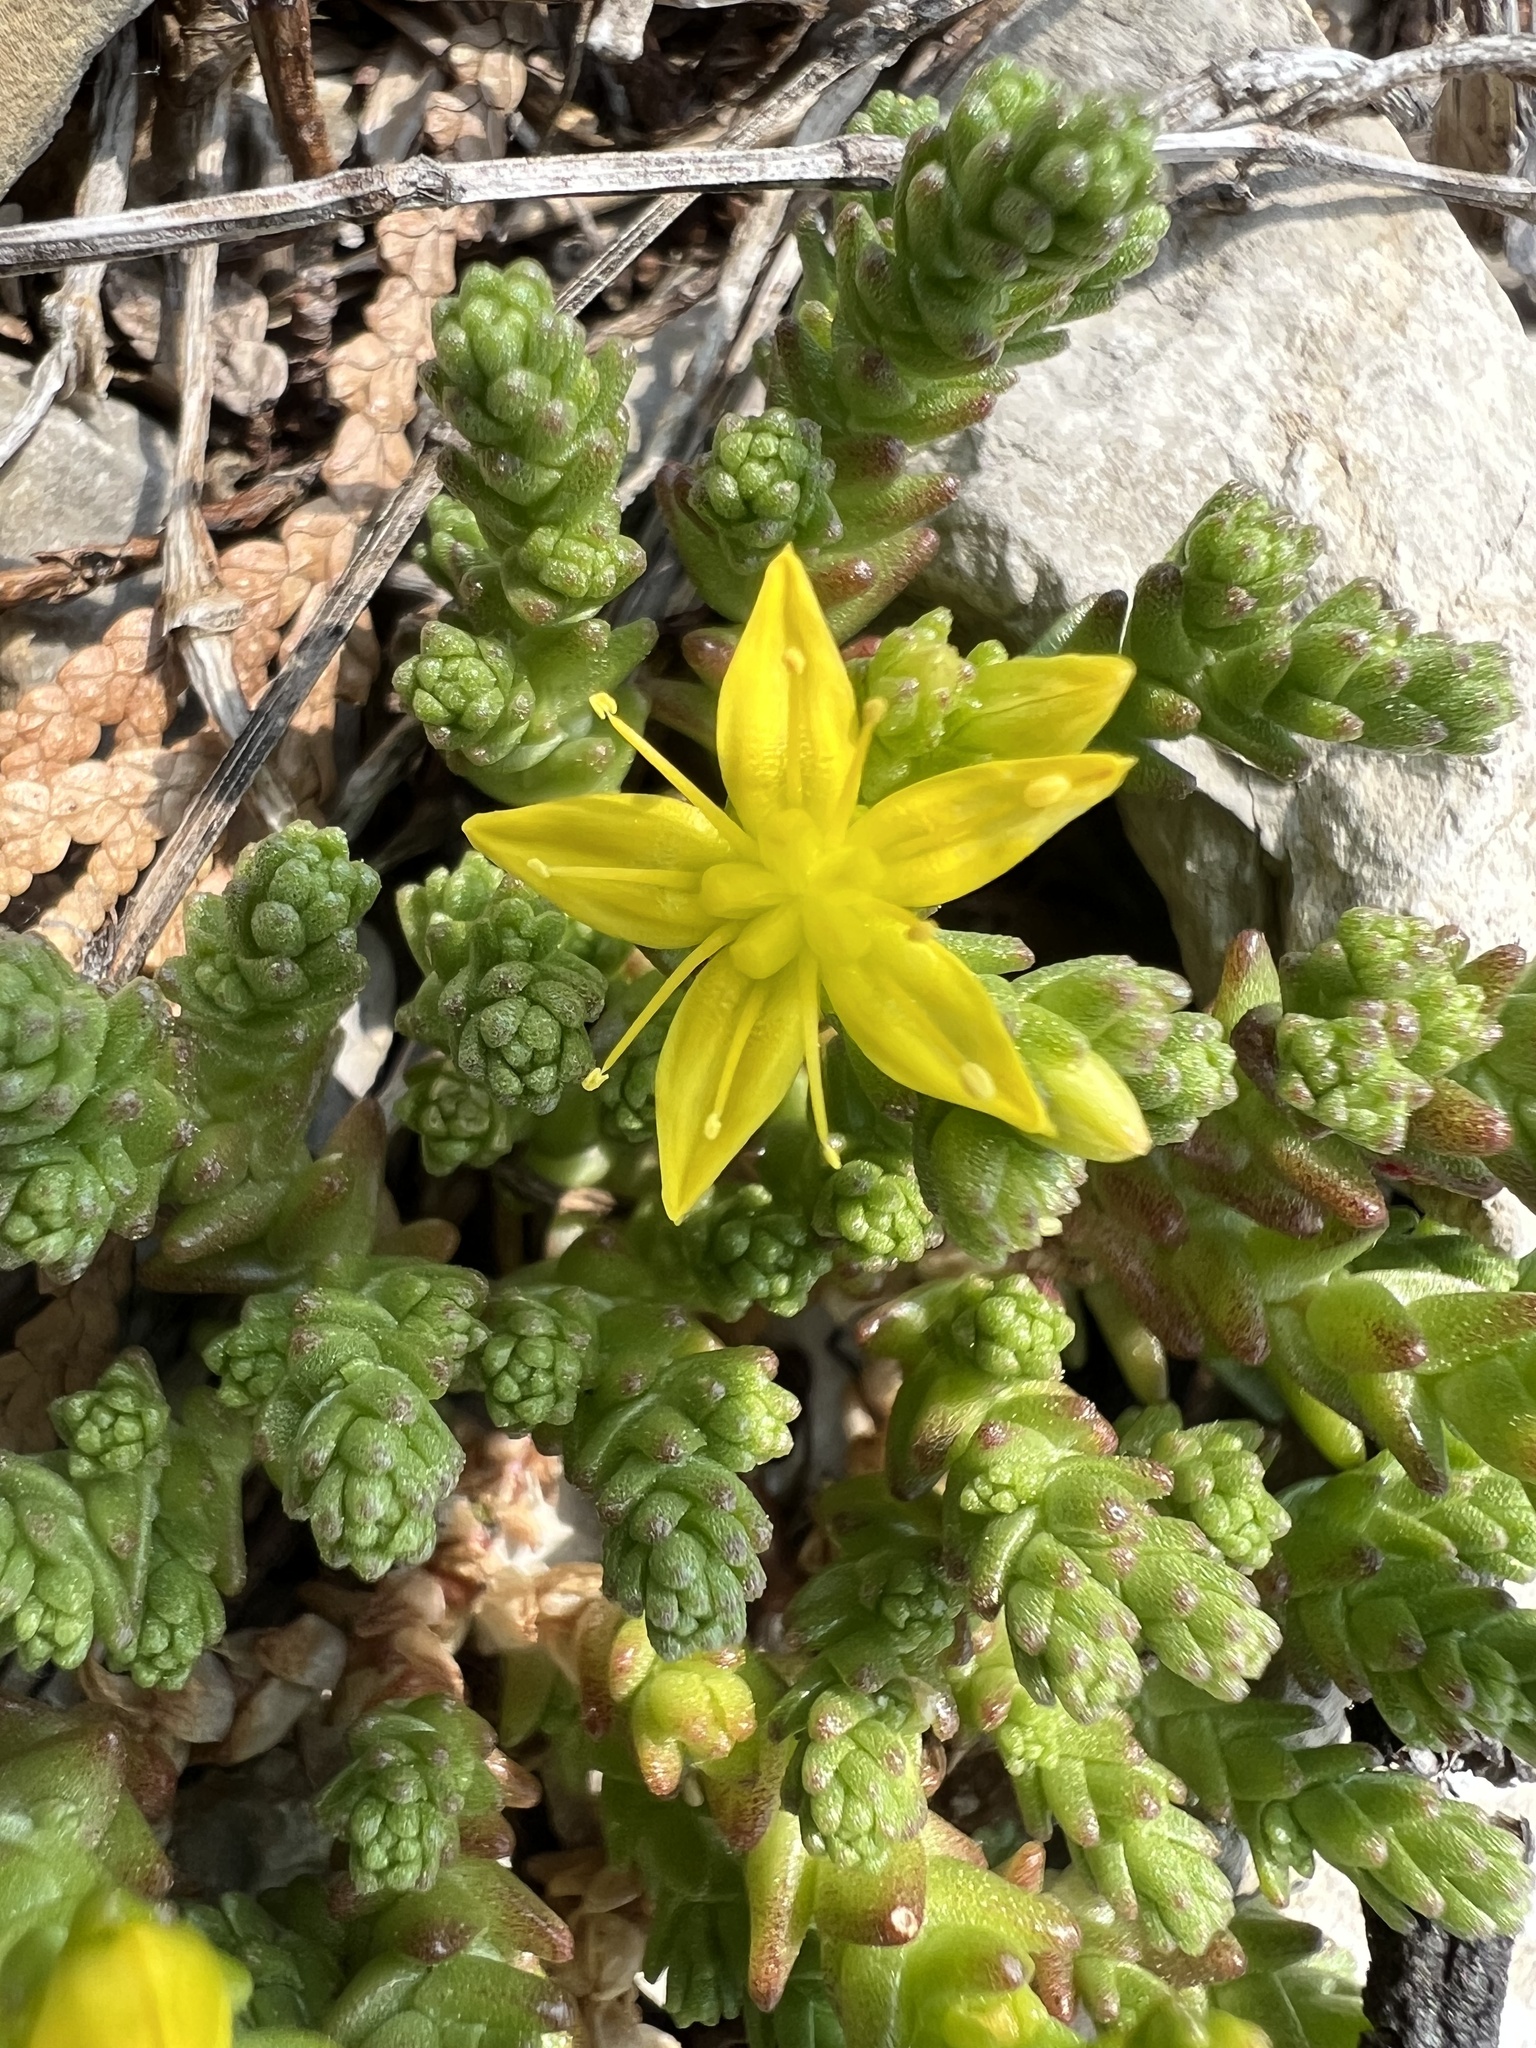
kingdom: Plantae
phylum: Tracheophyta
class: Magnoliopsida
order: Saxifragales
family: Crassulaceae
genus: Sedum
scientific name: Sedum acre
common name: Biting stonecrop
